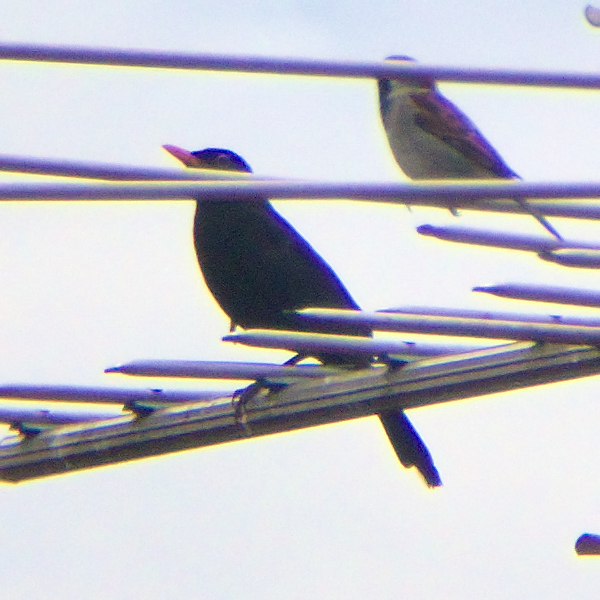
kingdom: Animalia
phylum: Chordata
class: Aves
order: Passeriformes
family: Turdidae
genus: Turdus
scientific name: Turdus merula
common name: Common blackbird
